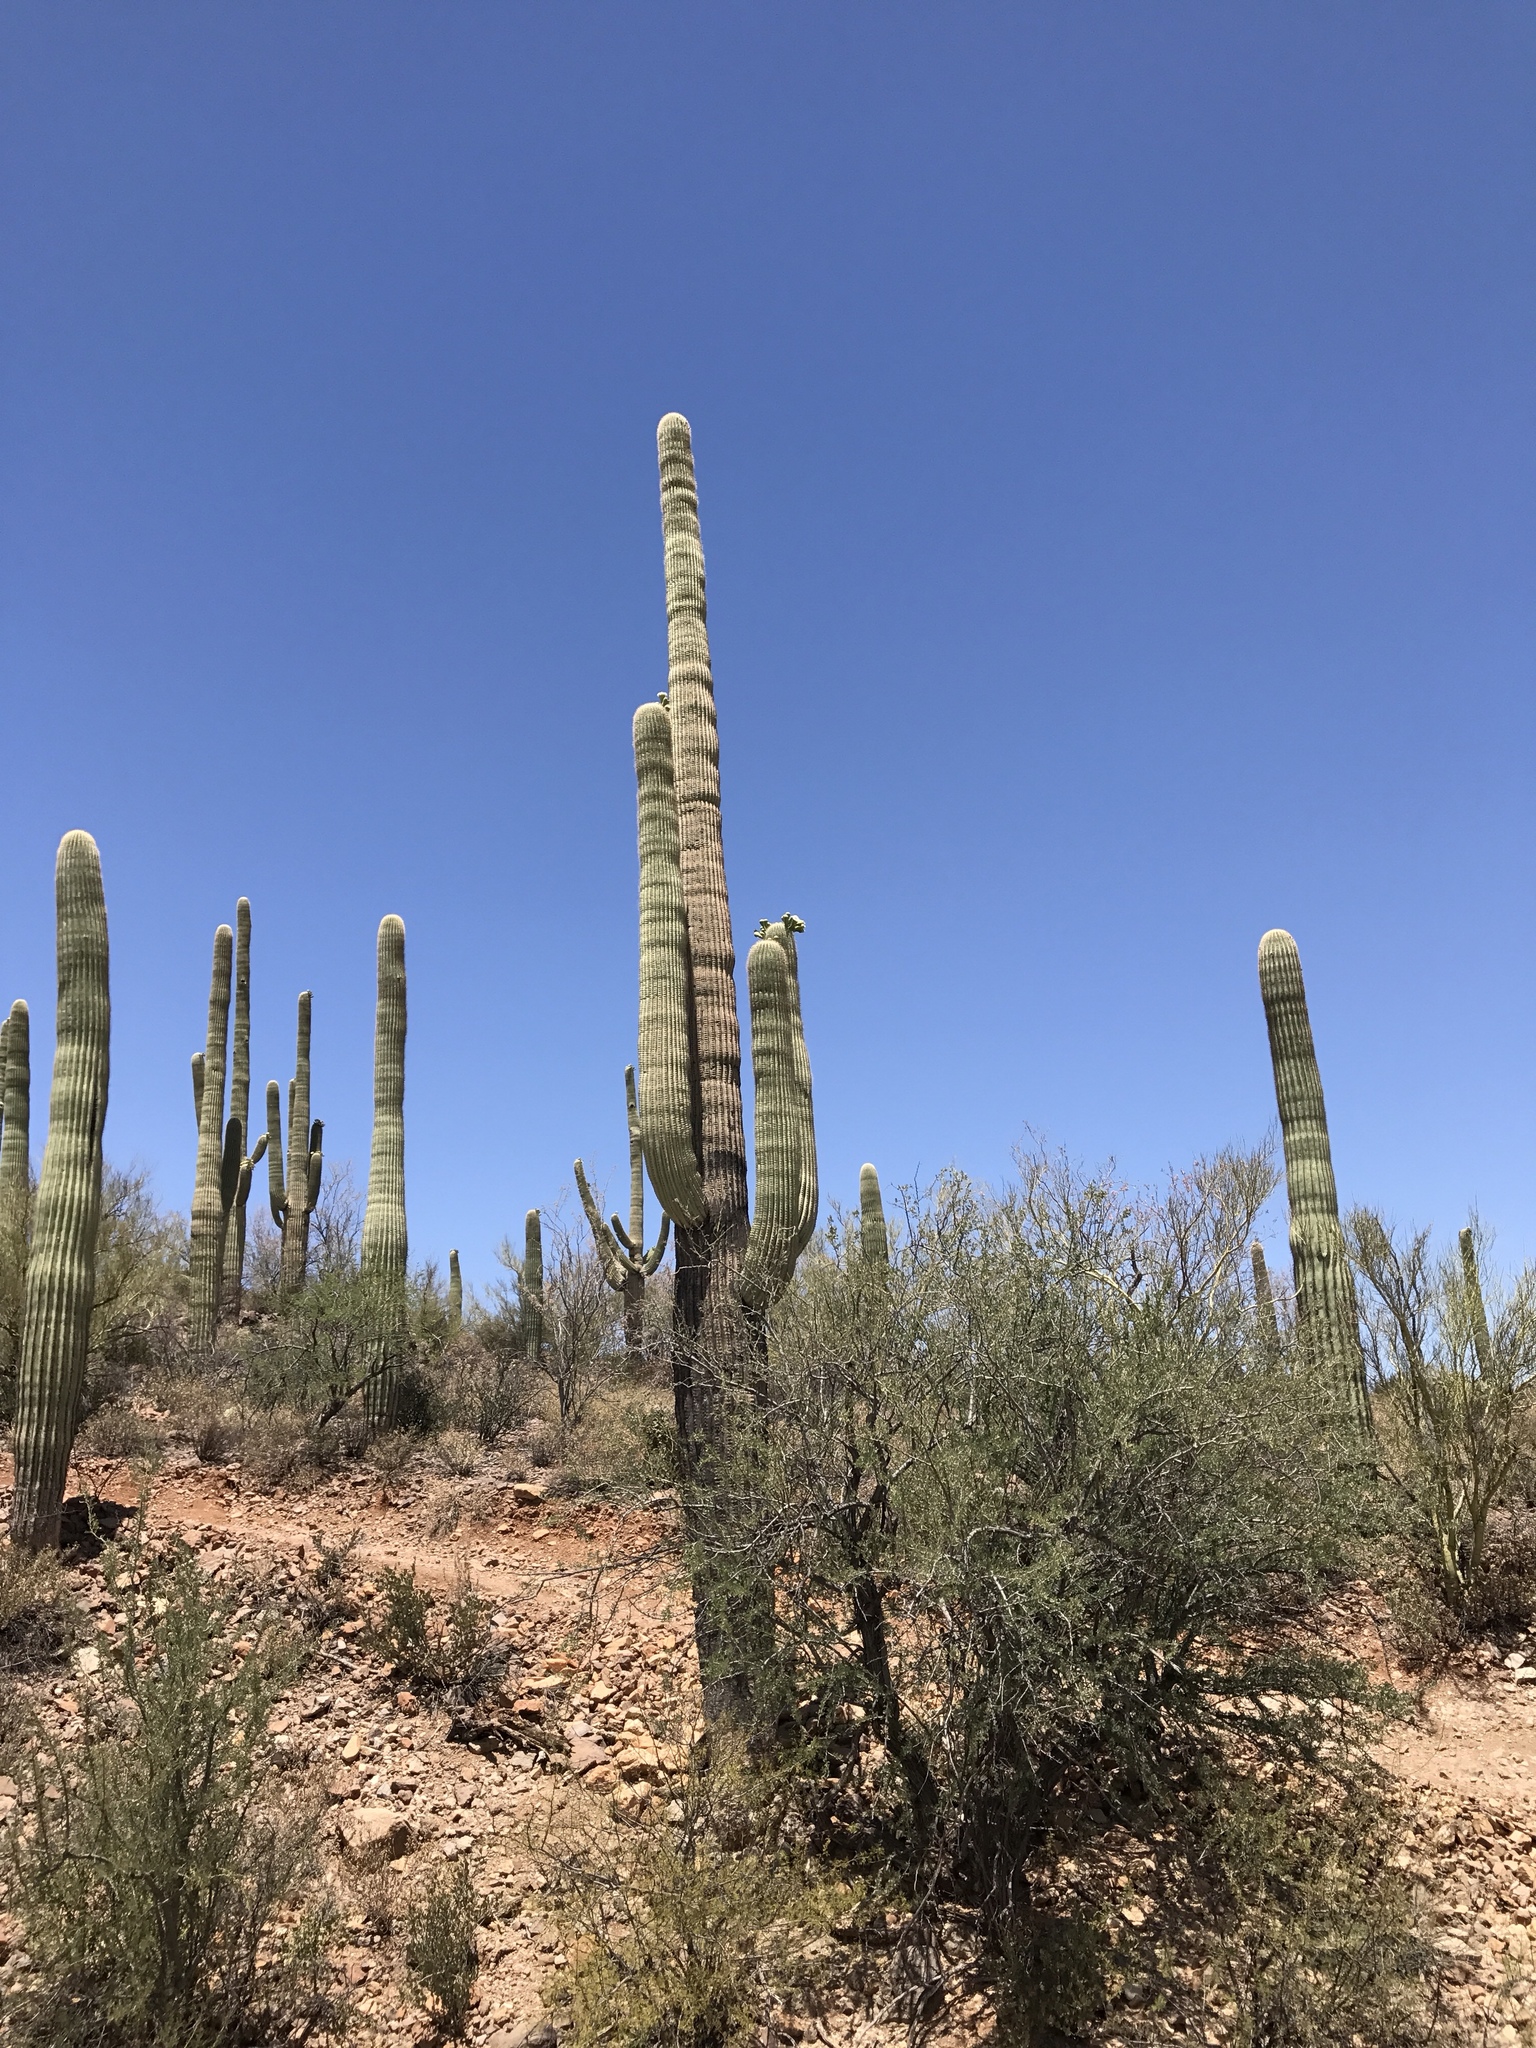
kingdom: Plantae
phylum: Tracheophyta
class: Magnoliopsida
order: Caryophyllales
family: Cactaceae
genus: Carnegiea
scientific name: Carnegiea gigantea
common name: Saguaro
